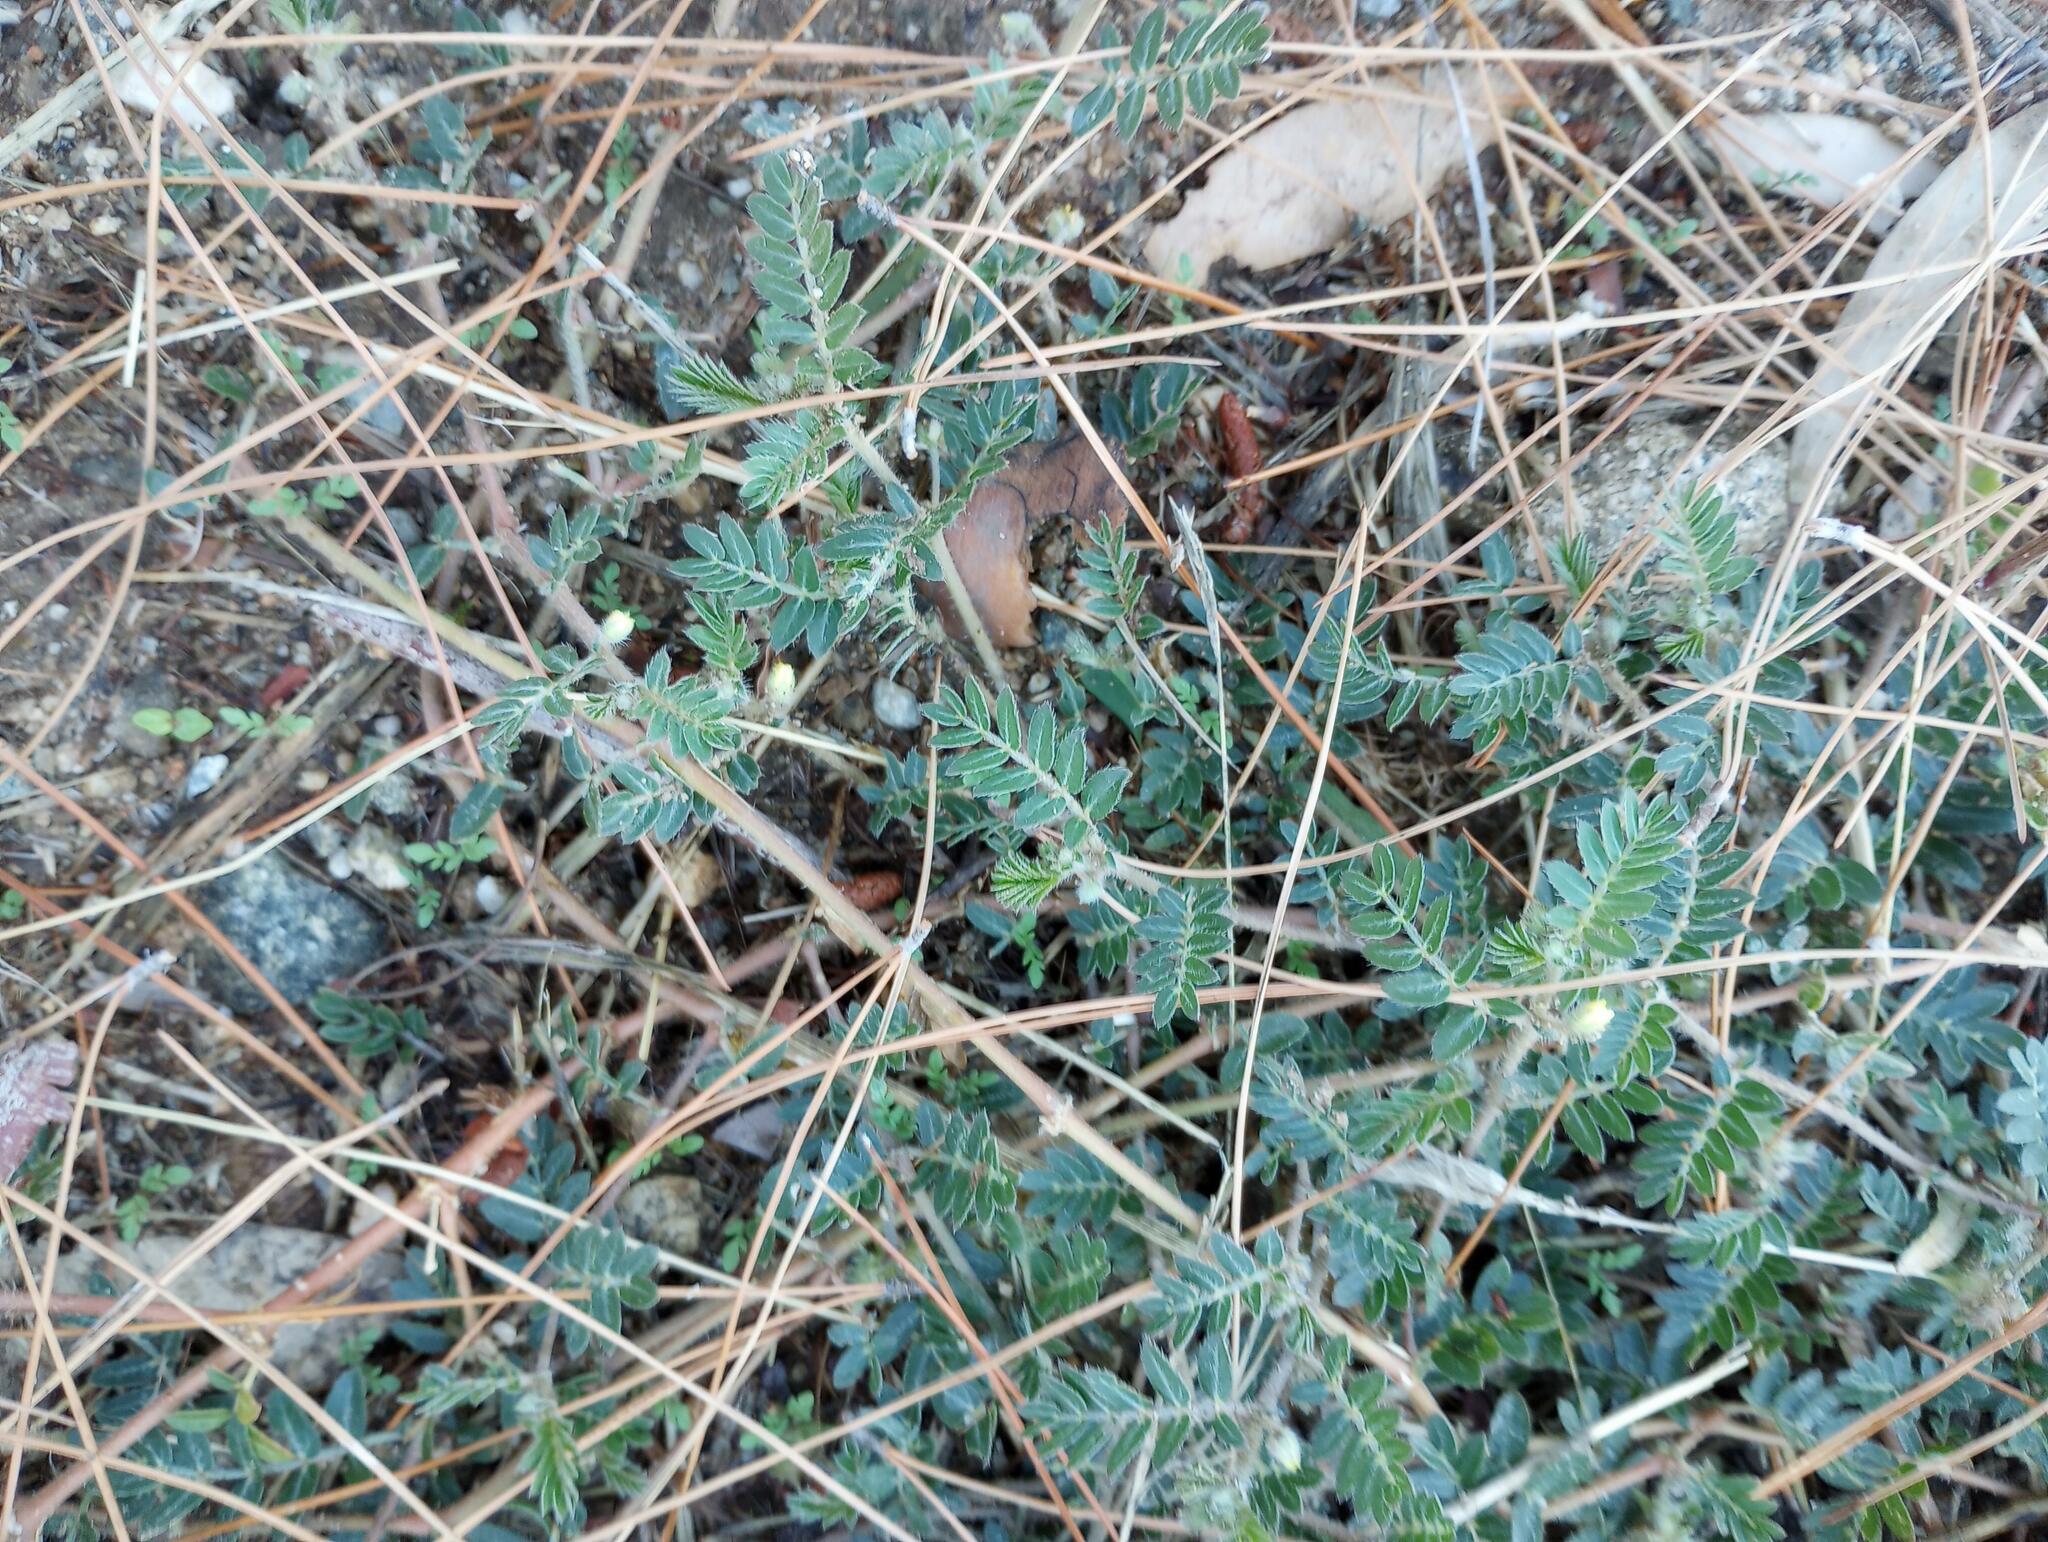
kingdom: Plantae
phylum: Tracheophyta
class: Magnoliopsida
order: Zygophyllales
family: Zygophyllaceae
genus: Tribulus
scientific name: Tribulus terrestris
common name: Puncturevine
